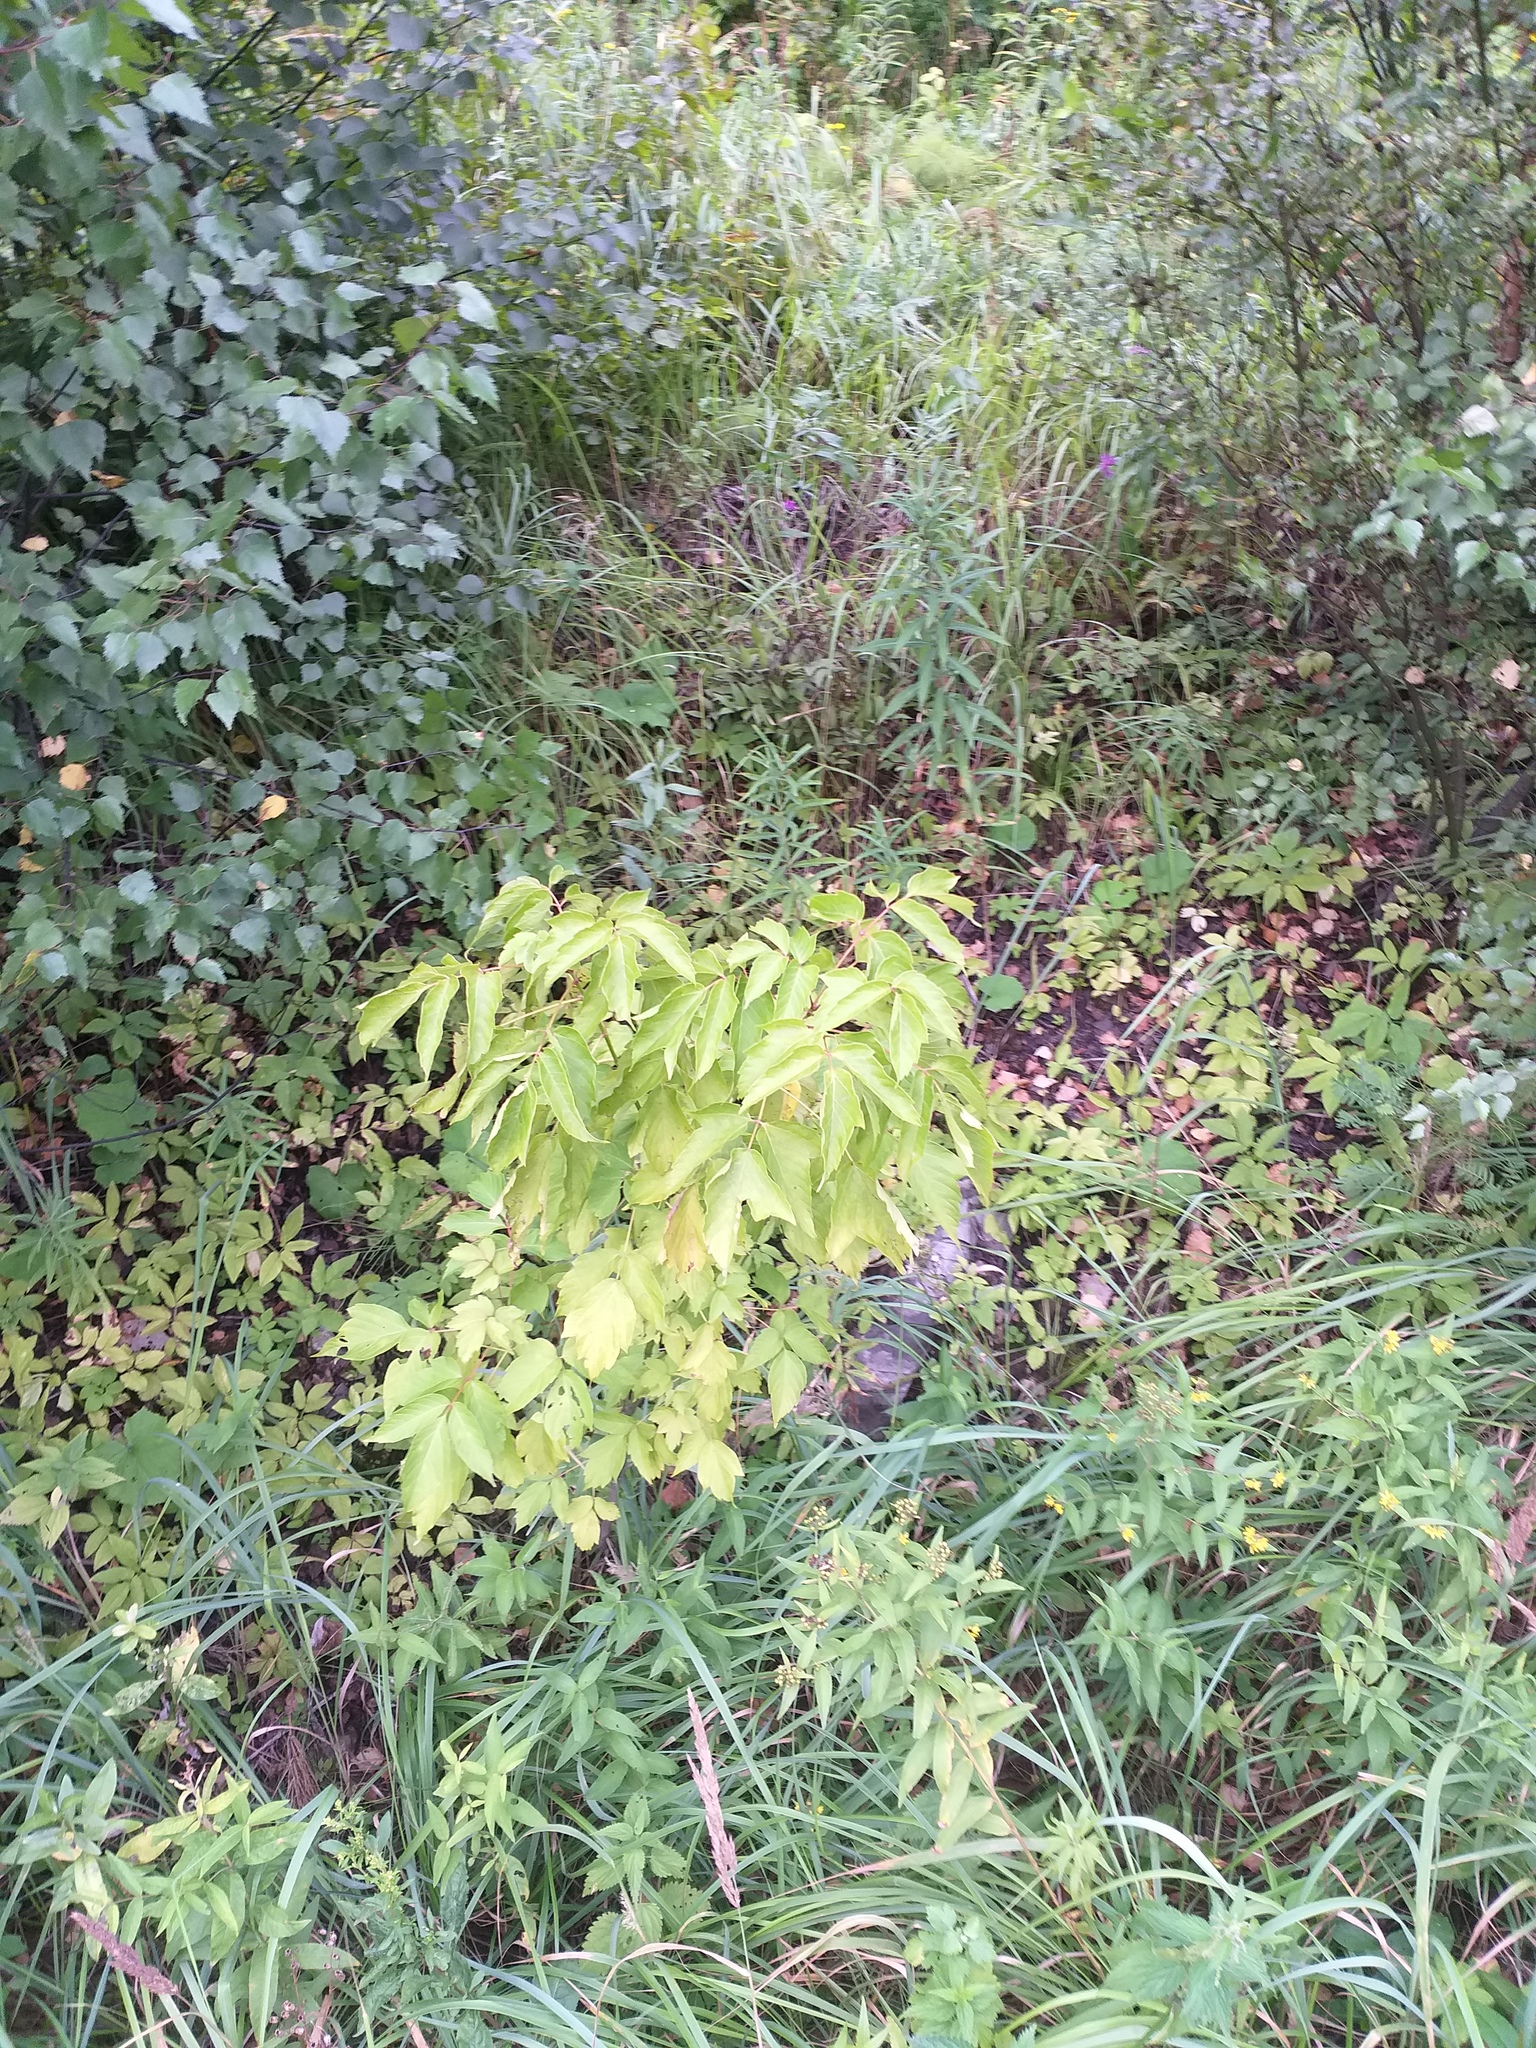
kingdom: Plantae
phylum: Tracheophyta
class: Magnoliopsida
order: Sapindales
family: Sapindaceae
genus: Acer
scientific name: Acer negundo
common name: Ashleaf maple
